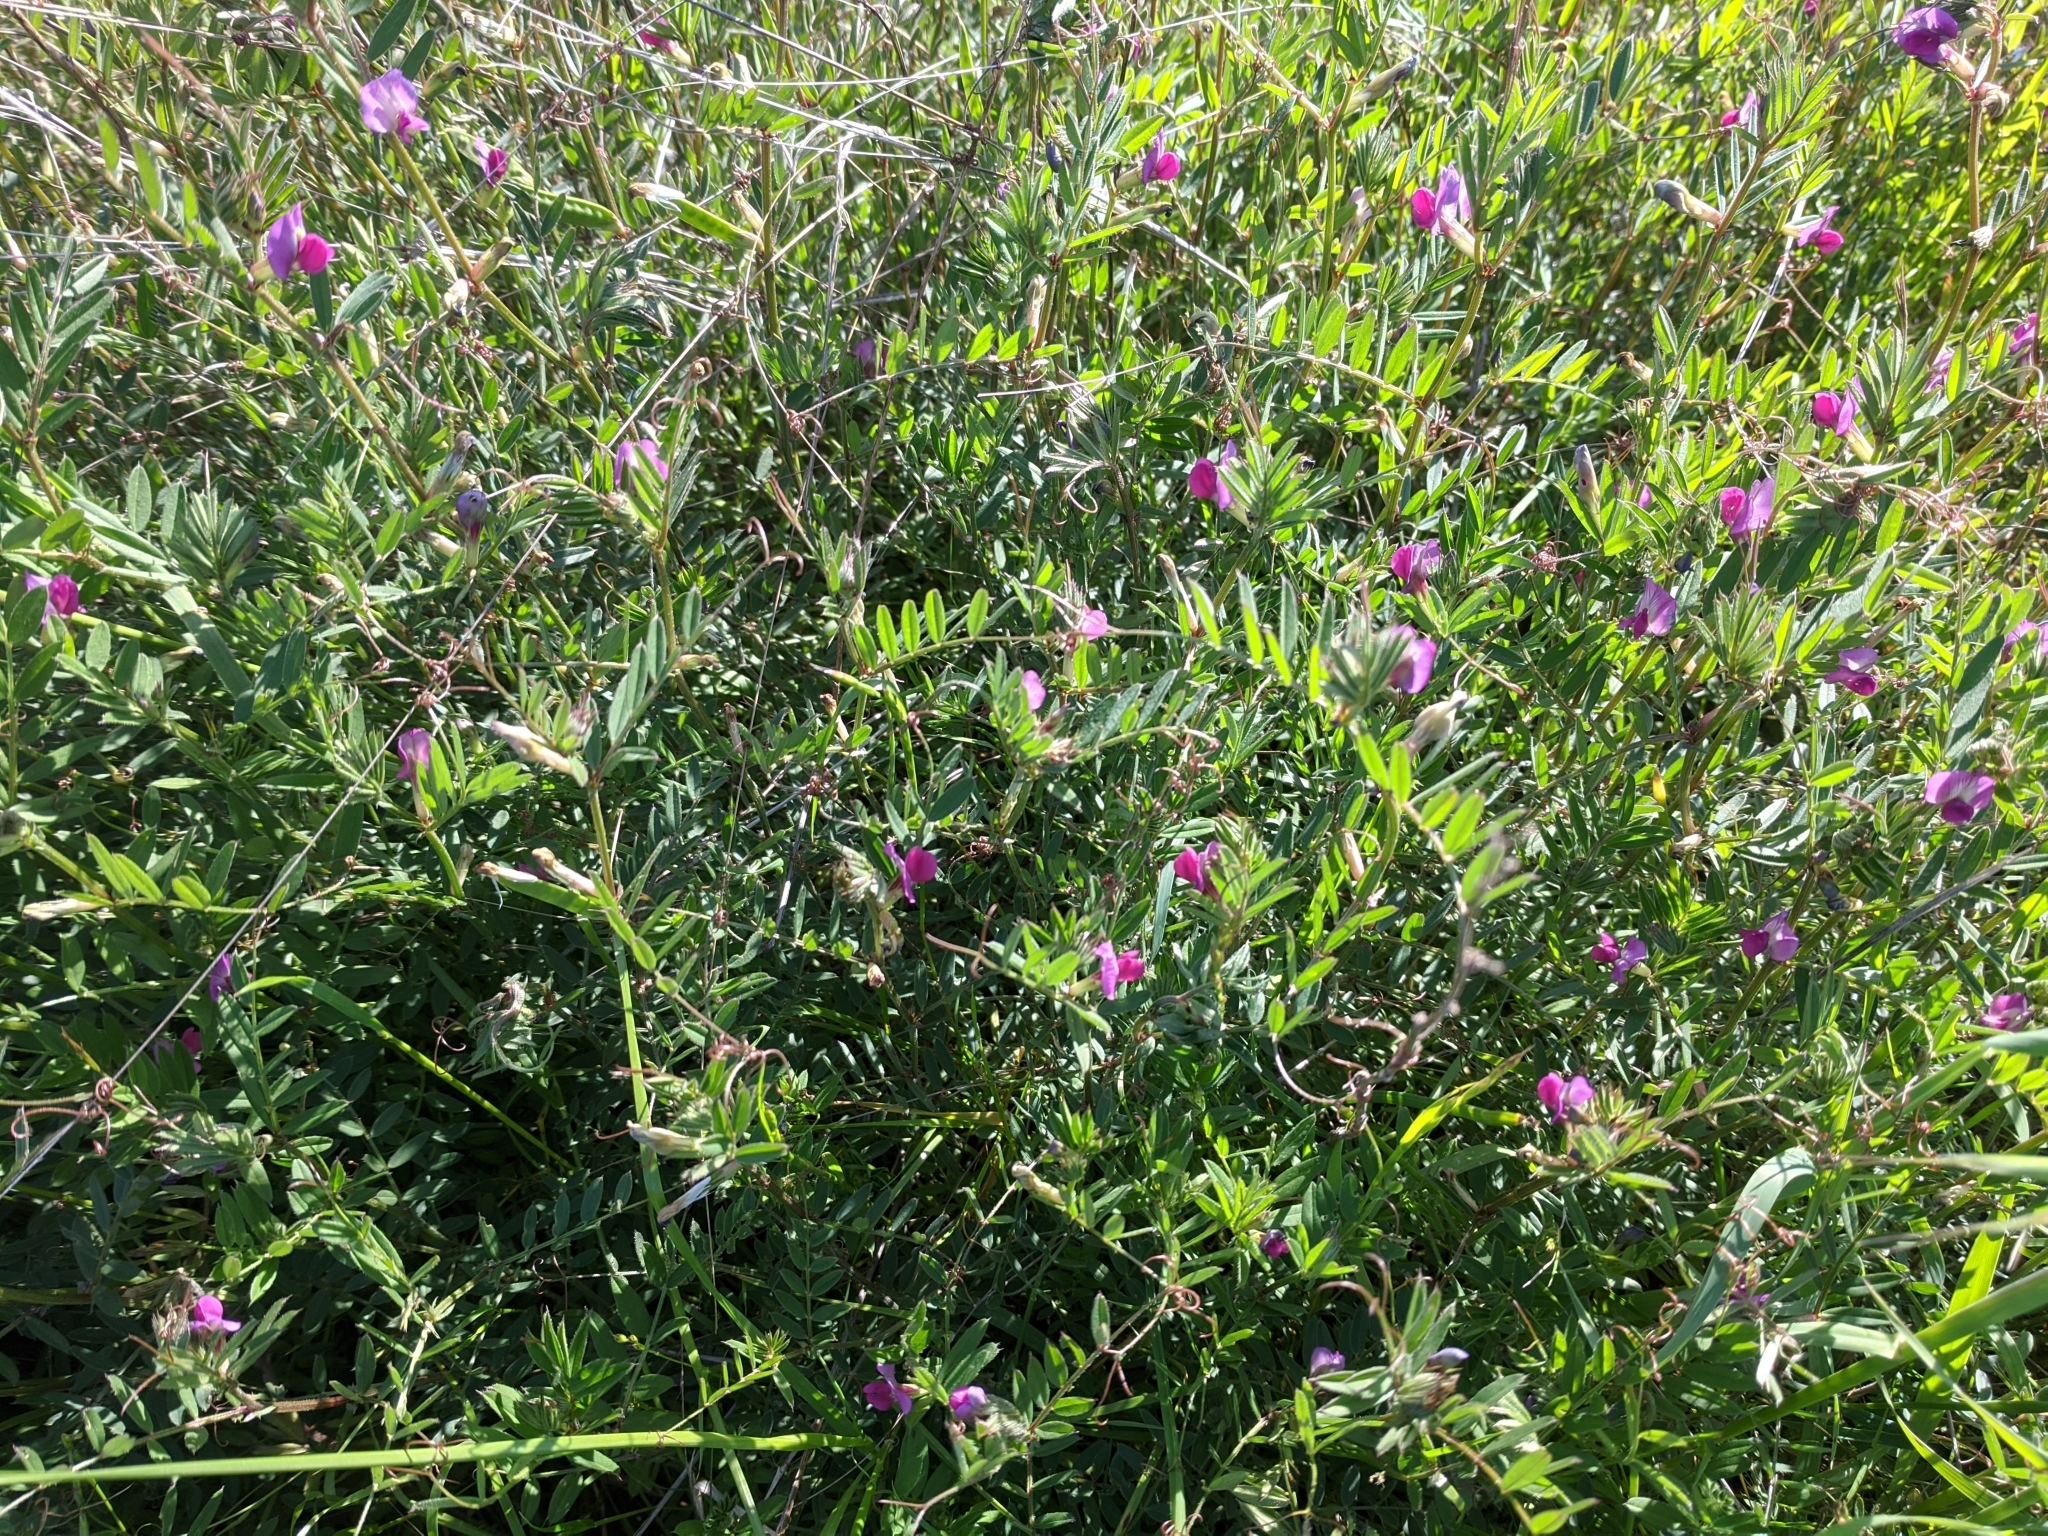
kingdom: Plantae
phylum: Tracheophyta
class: Magnoliopsida
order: Fabales
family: Fabaceae
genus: Vicia
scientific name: Vicia sativa
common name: Garden vetch
